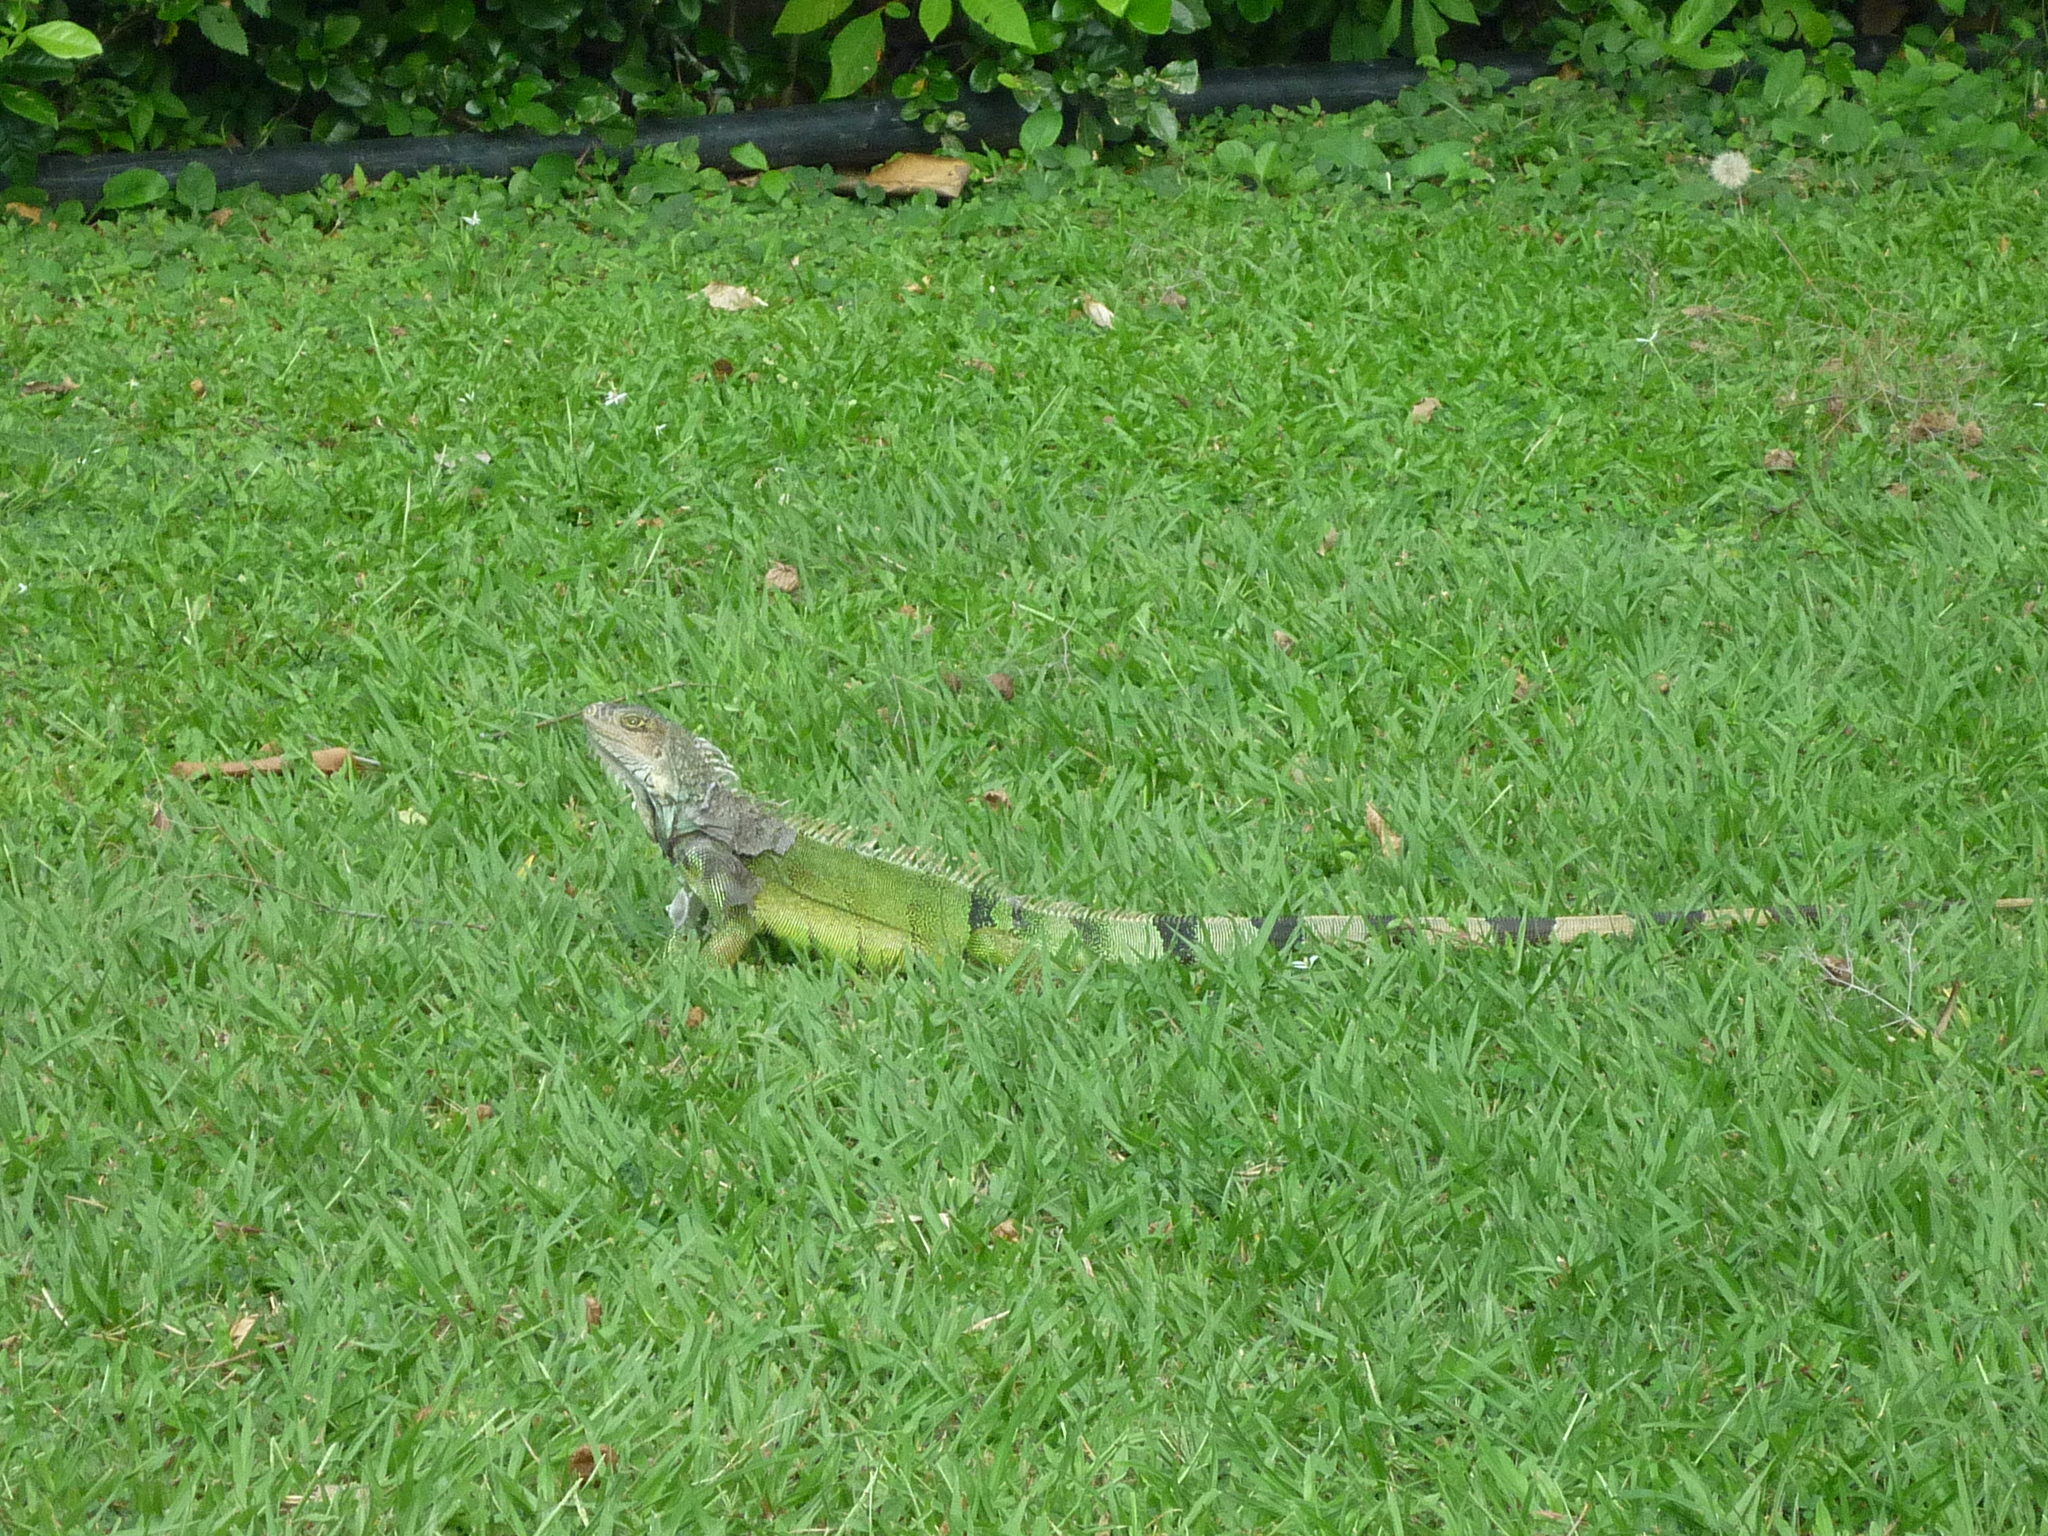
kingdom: Animalia
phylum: Chordata
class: Squamata
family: Iguanidae
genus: Iguana
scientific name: Iguana iguana
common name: Green iguana
